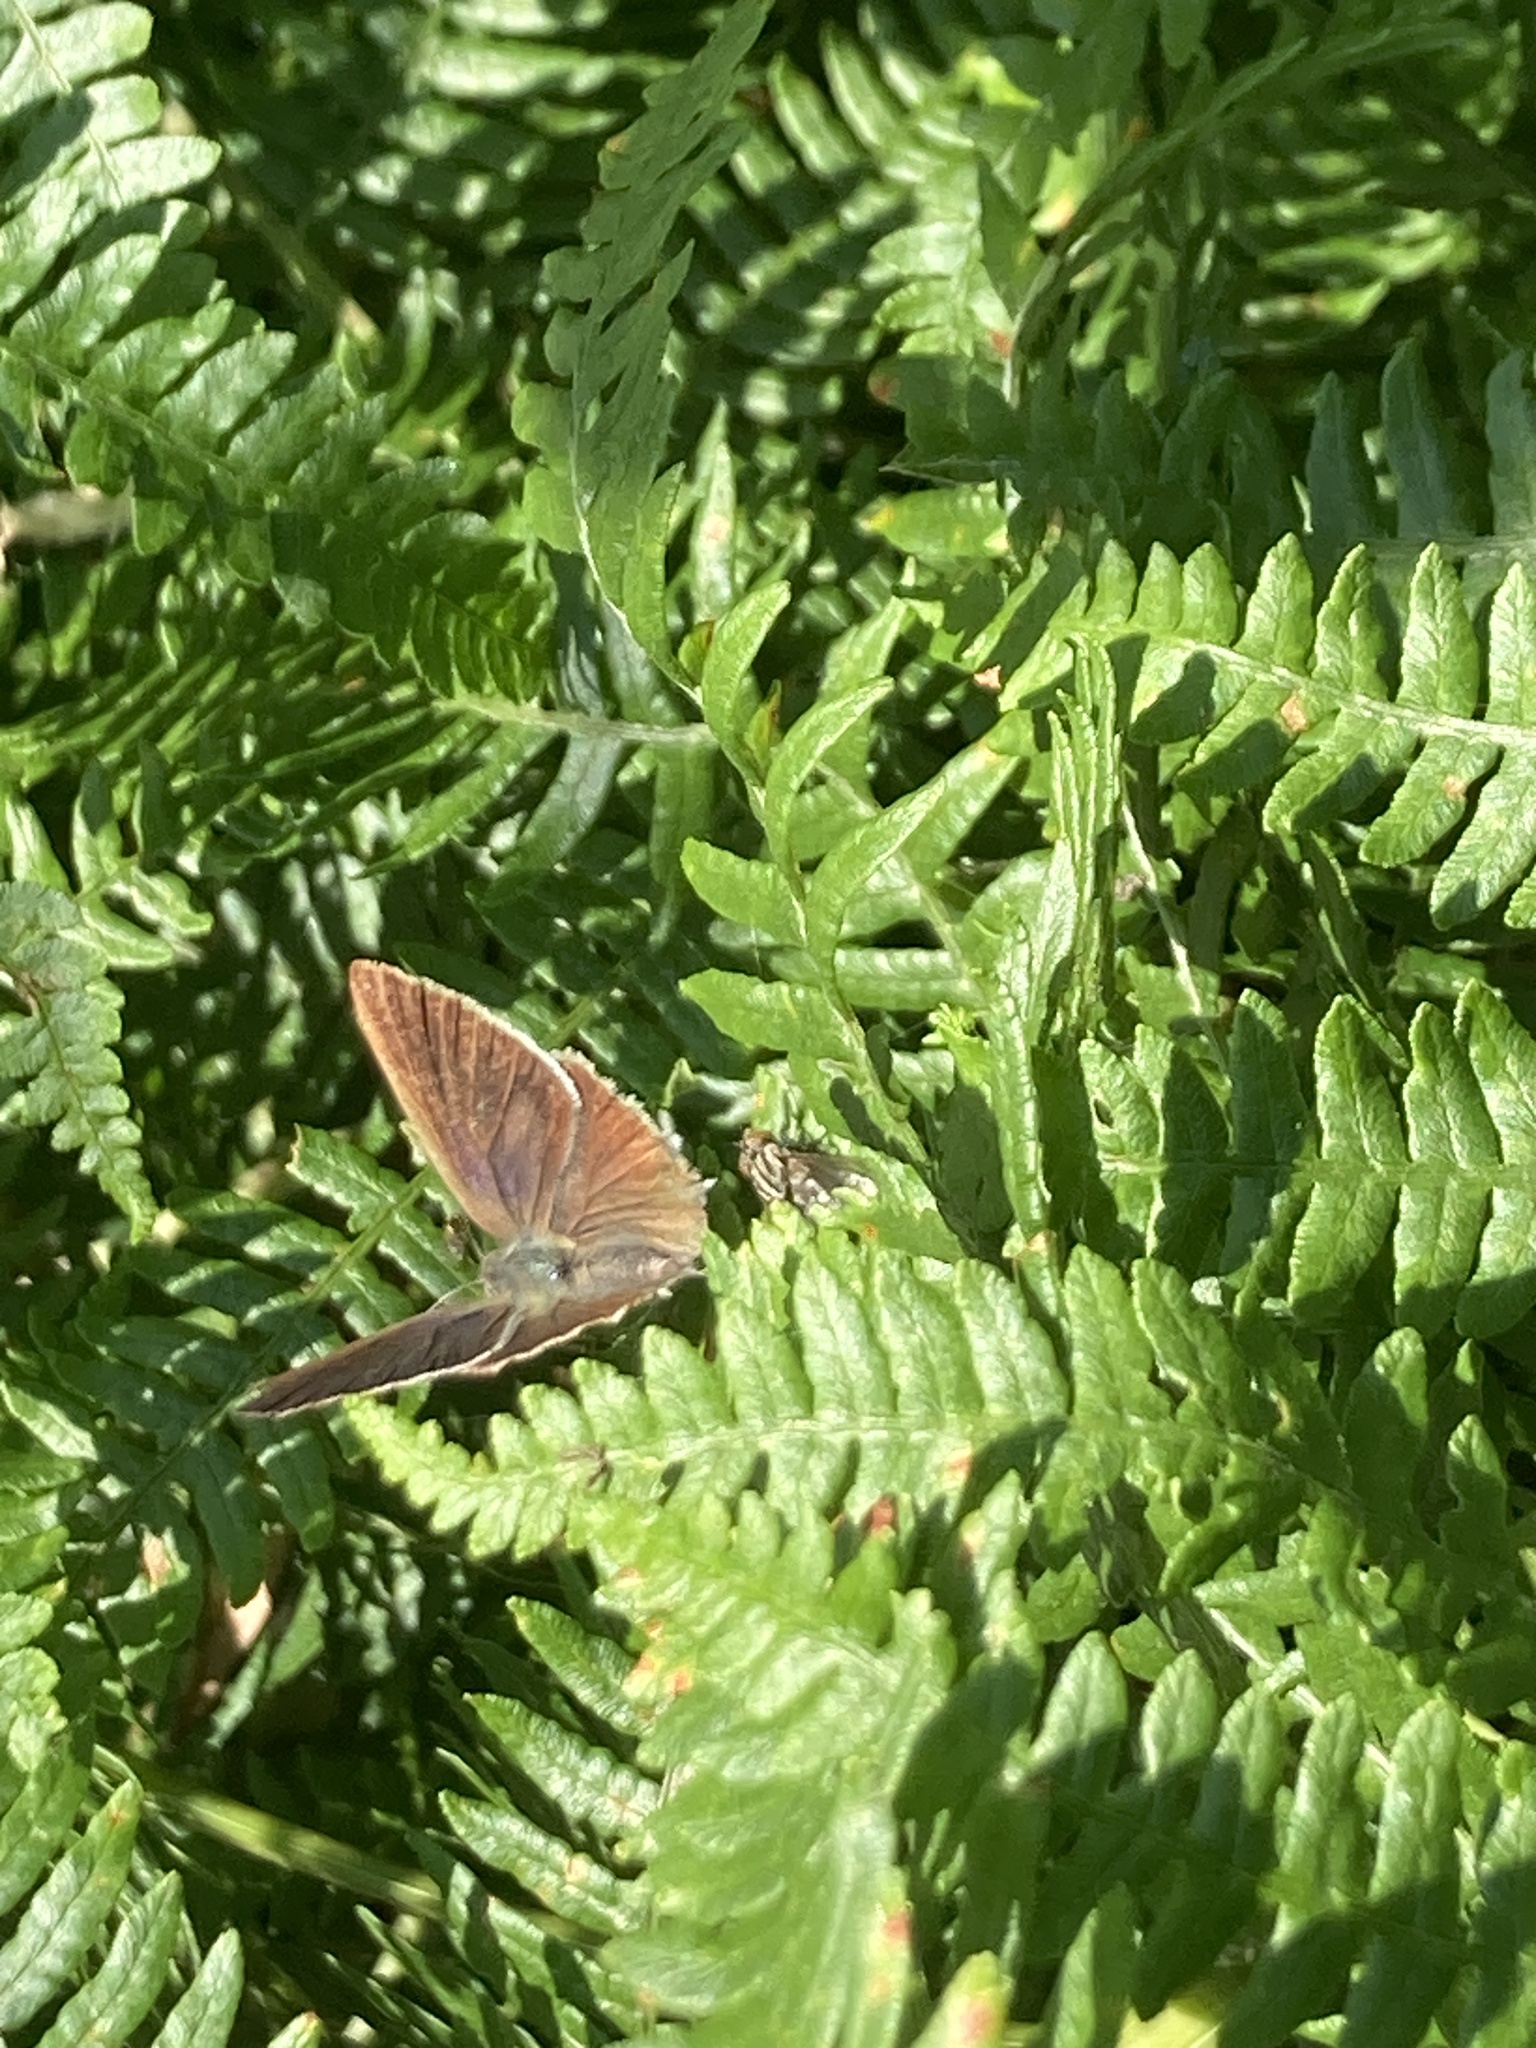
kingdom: Animalia
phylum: Arthropoda
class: Insecta
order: Lepidoptera
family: Lycaenidae
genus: Quercusia
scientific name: Quercusia quercus
